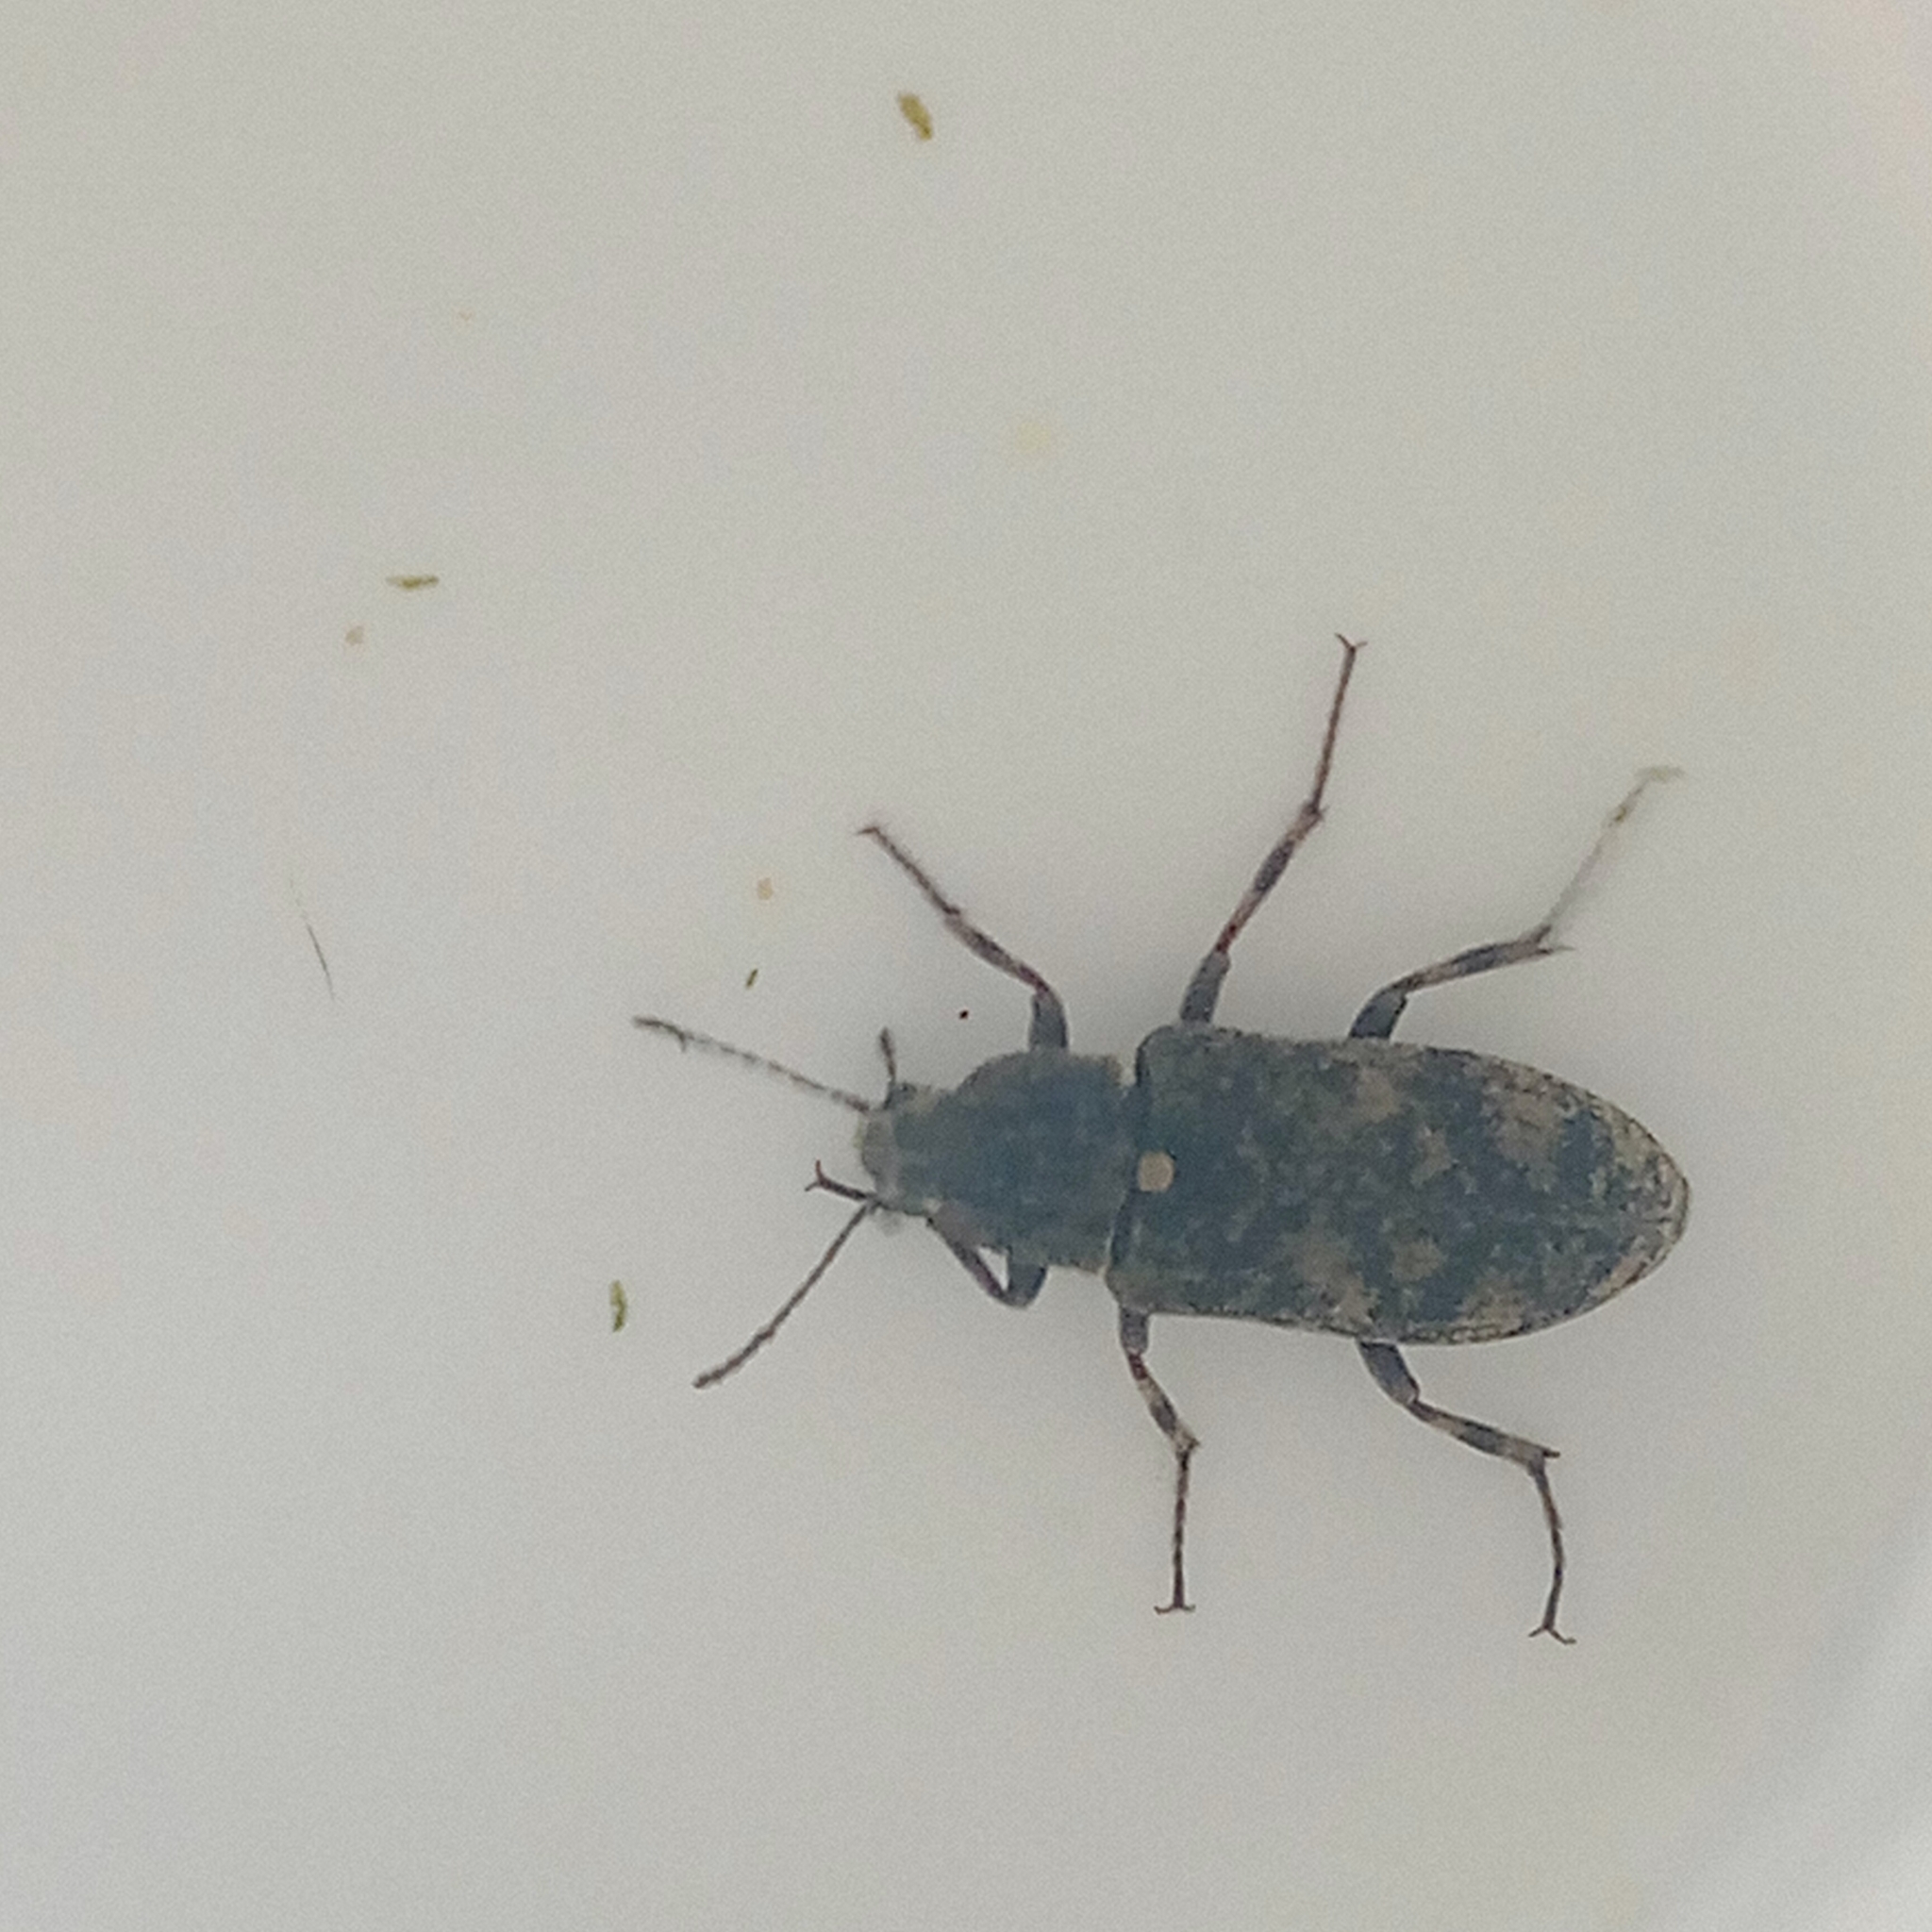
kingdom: Animalia
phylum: Arthropoda
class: Insecta
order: Coleoptera
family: Stenotrachelidae
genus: Scotodes
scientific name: Scotodes annulatus
